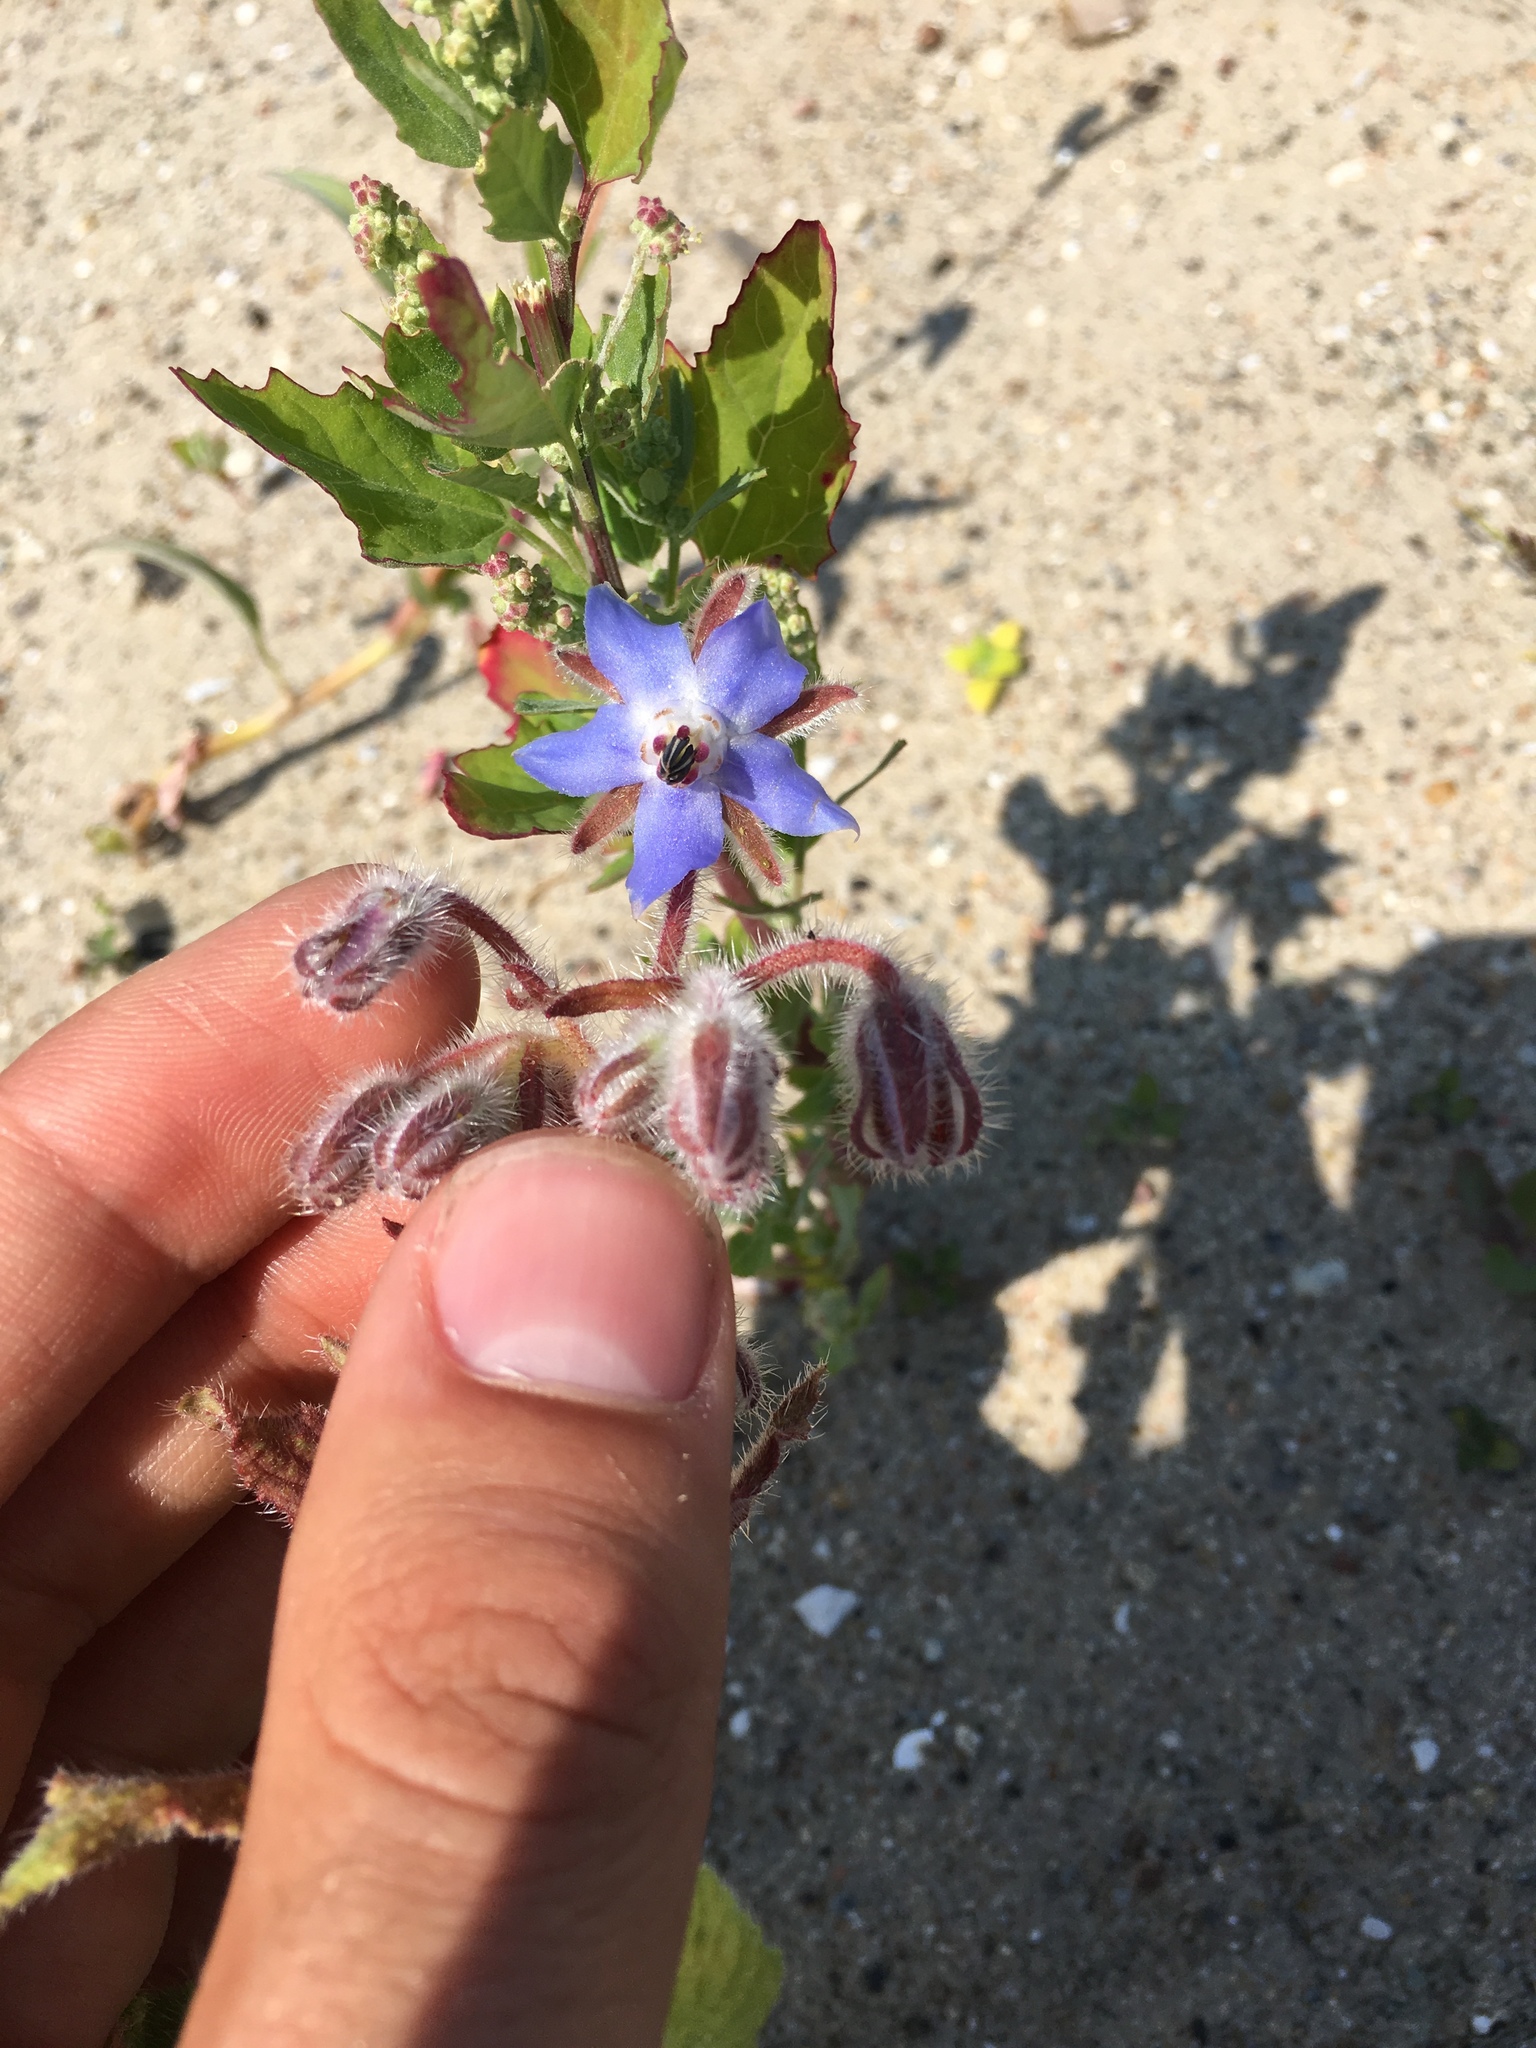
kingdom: Plantae
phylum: Tracheophyta
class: Magnoliopsida
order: Boraginales
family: Boraginaceae
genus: Borago
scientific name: Borago officinalis
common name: Borage
